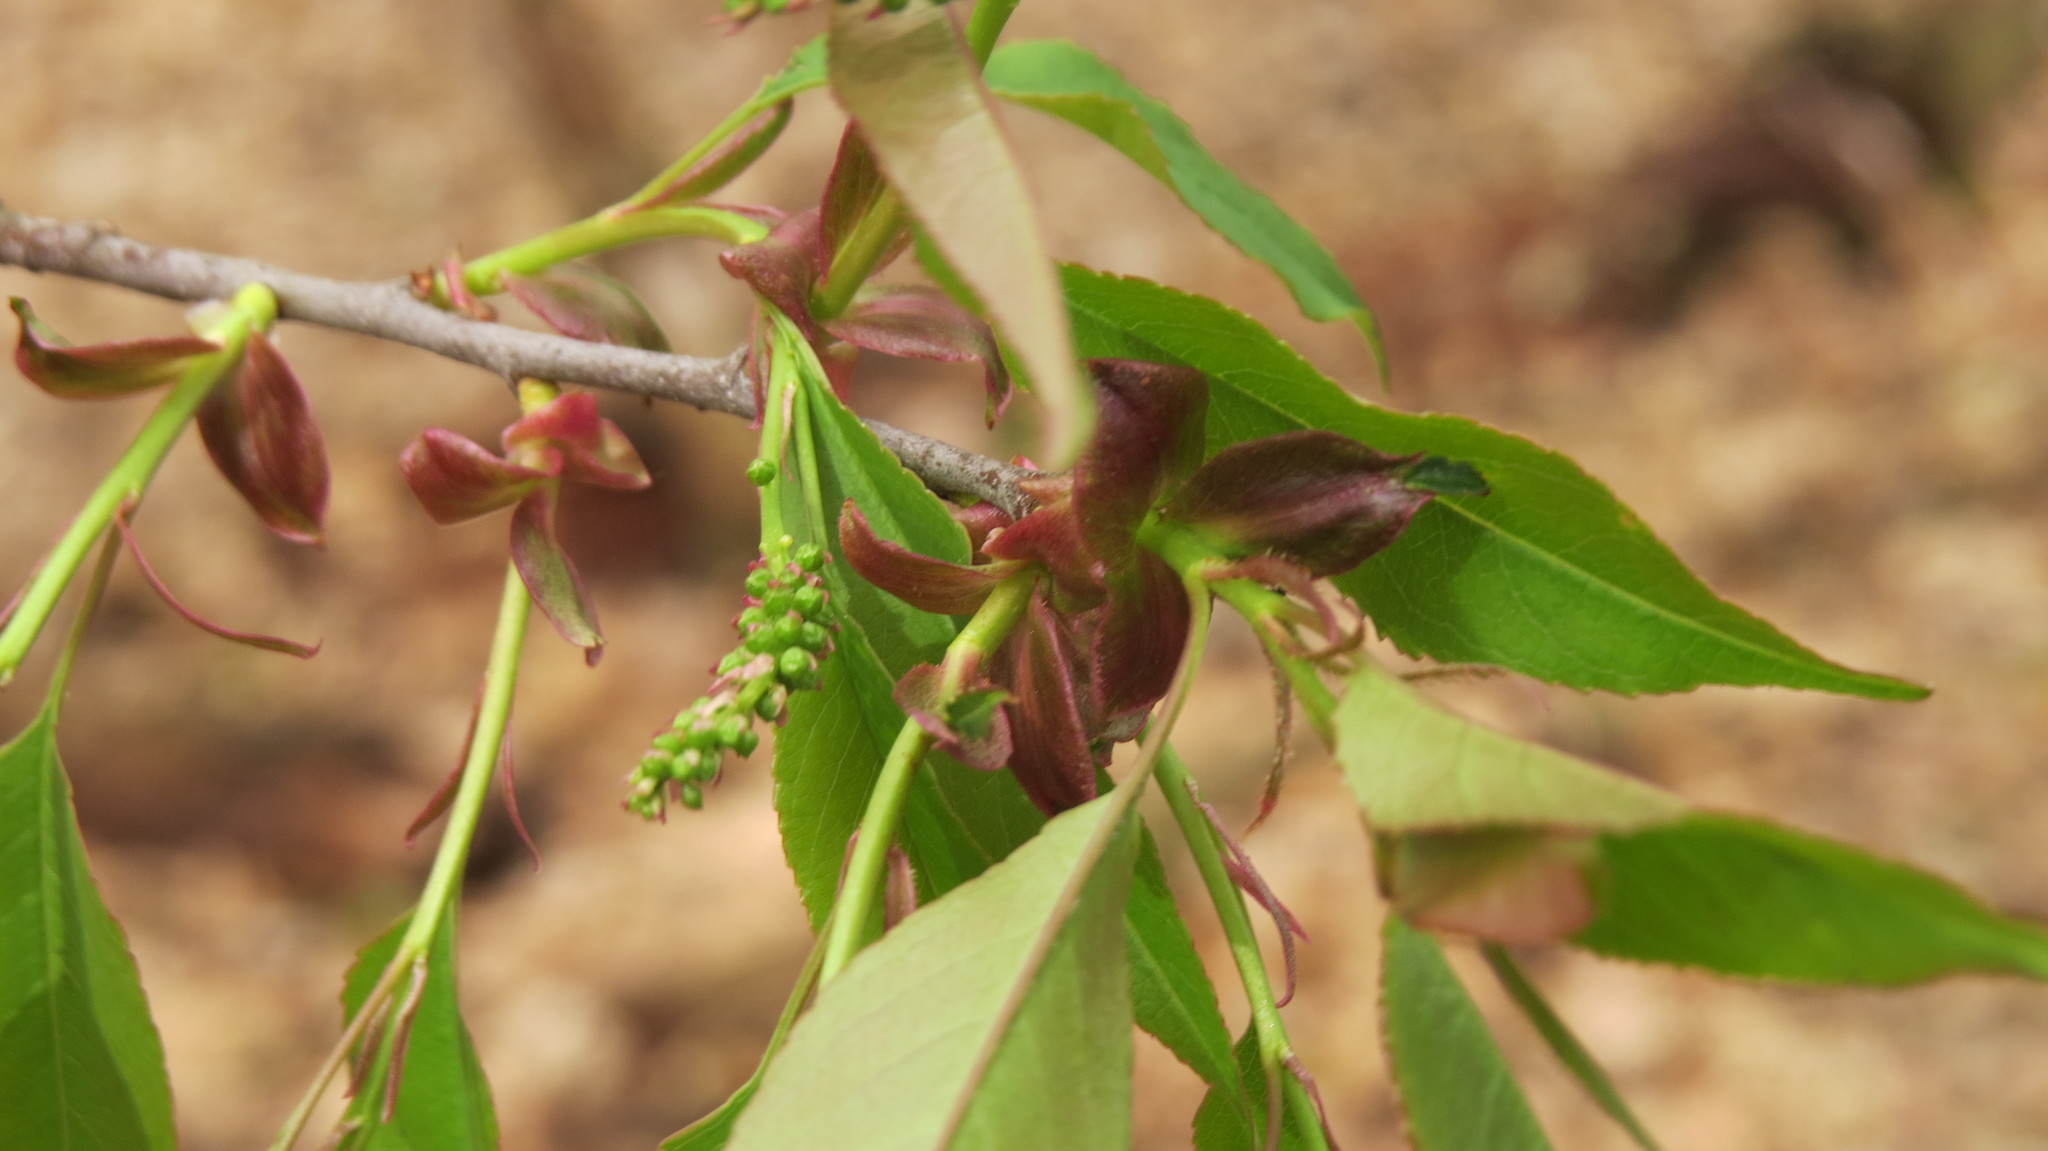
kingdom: Plantae
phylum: Tracheophyta
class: Magnoliopsida
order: Rosales
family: Rosaceae
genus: Prunus
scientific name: Prunus serotina
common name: Black cherry
